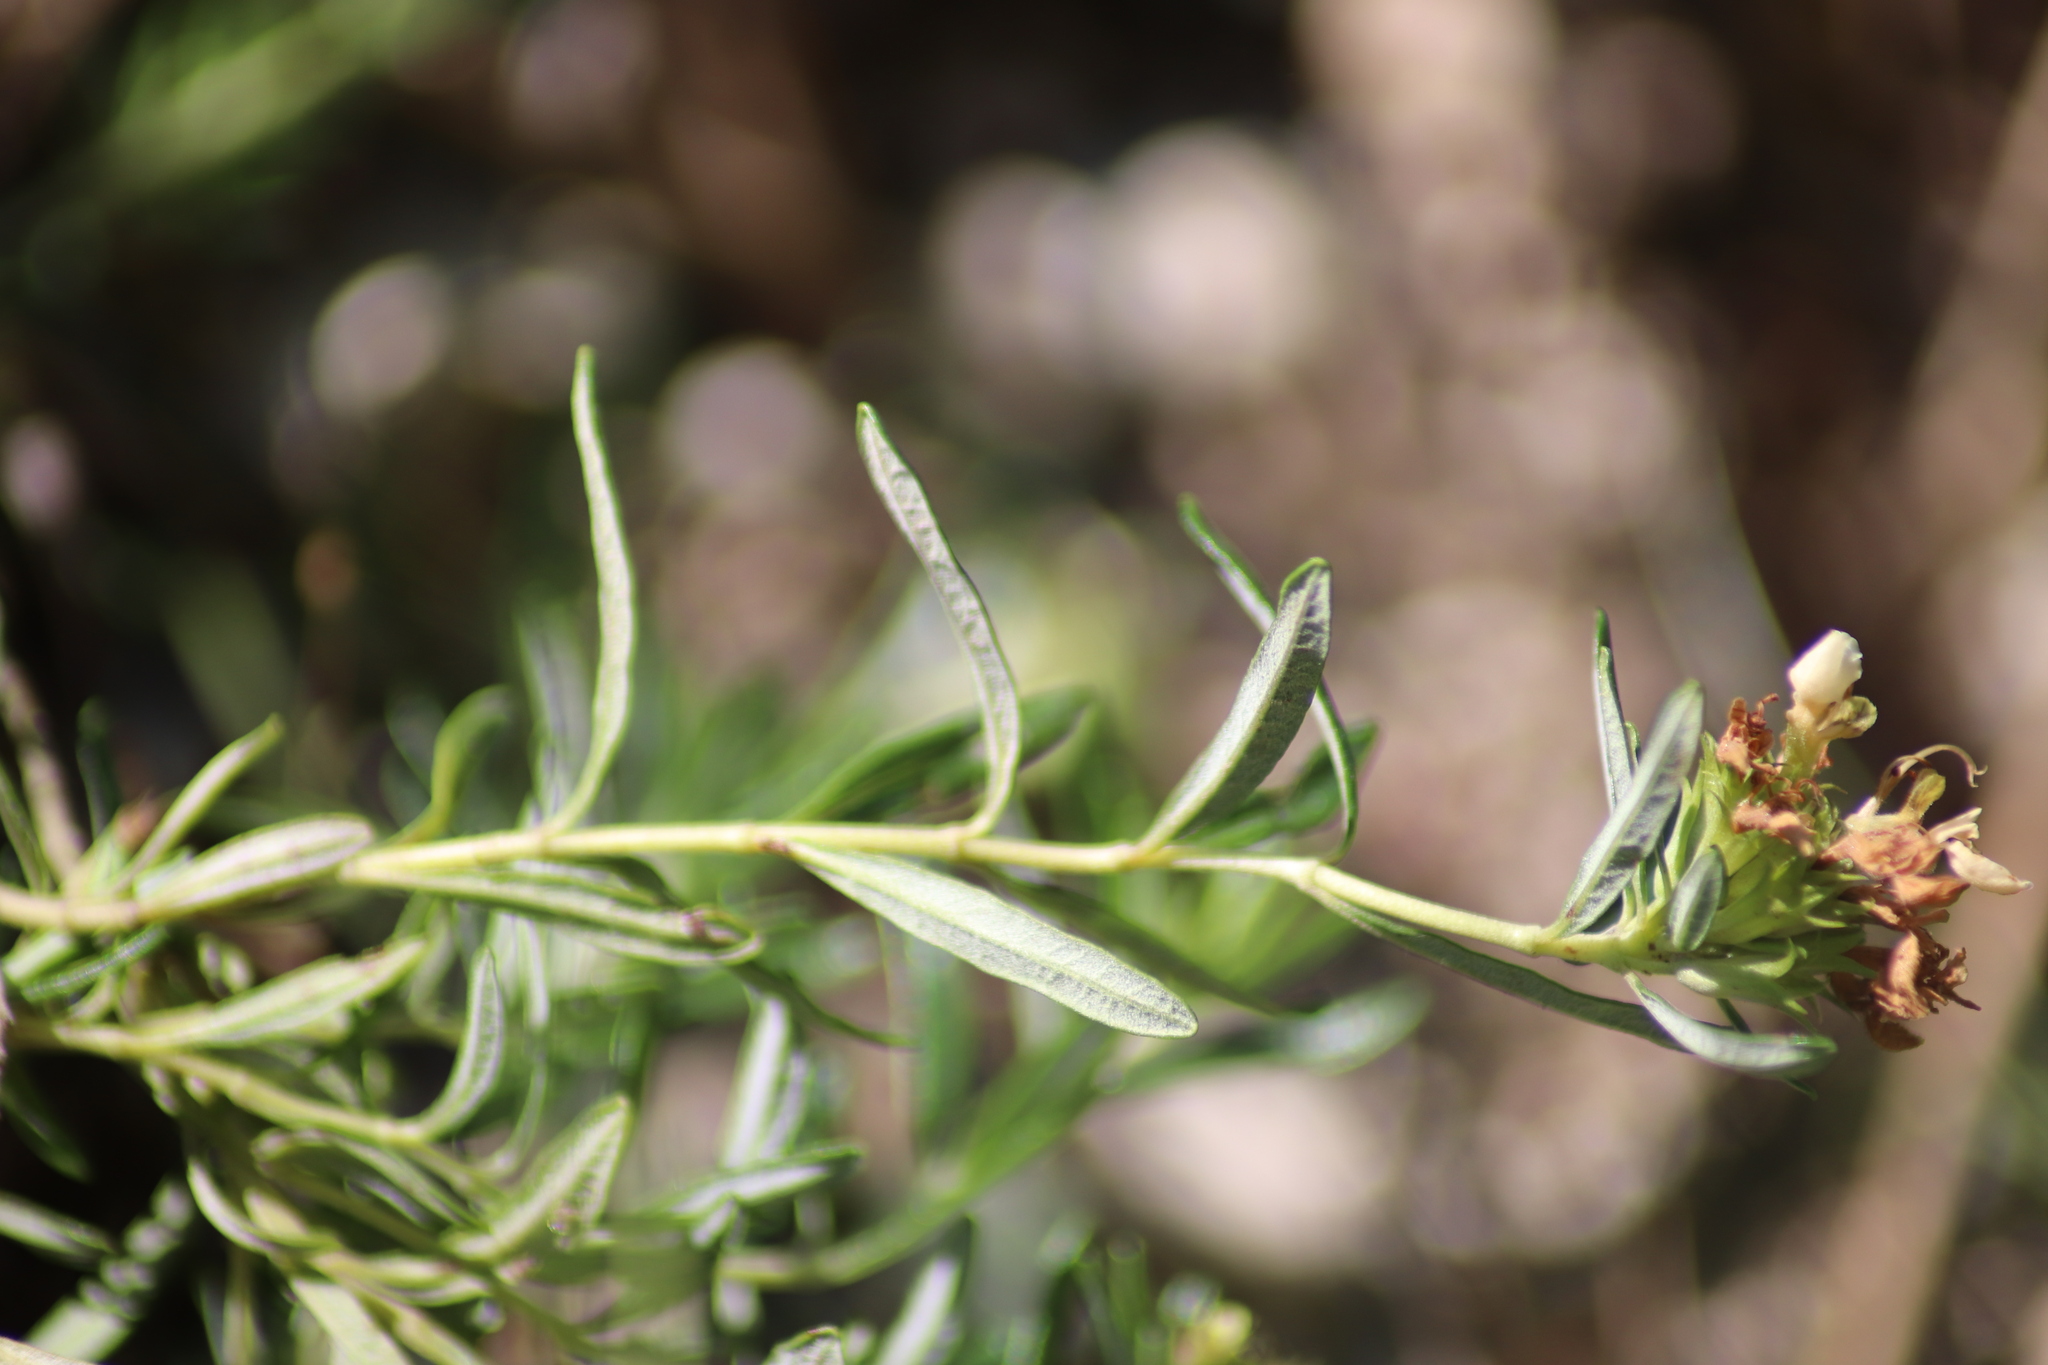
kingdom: Plantae
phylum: Tracheophyta
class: Magnoliopsida
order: Lamiales
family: Lamiaceae
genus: Teucrium
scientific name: Teucrium montanum
